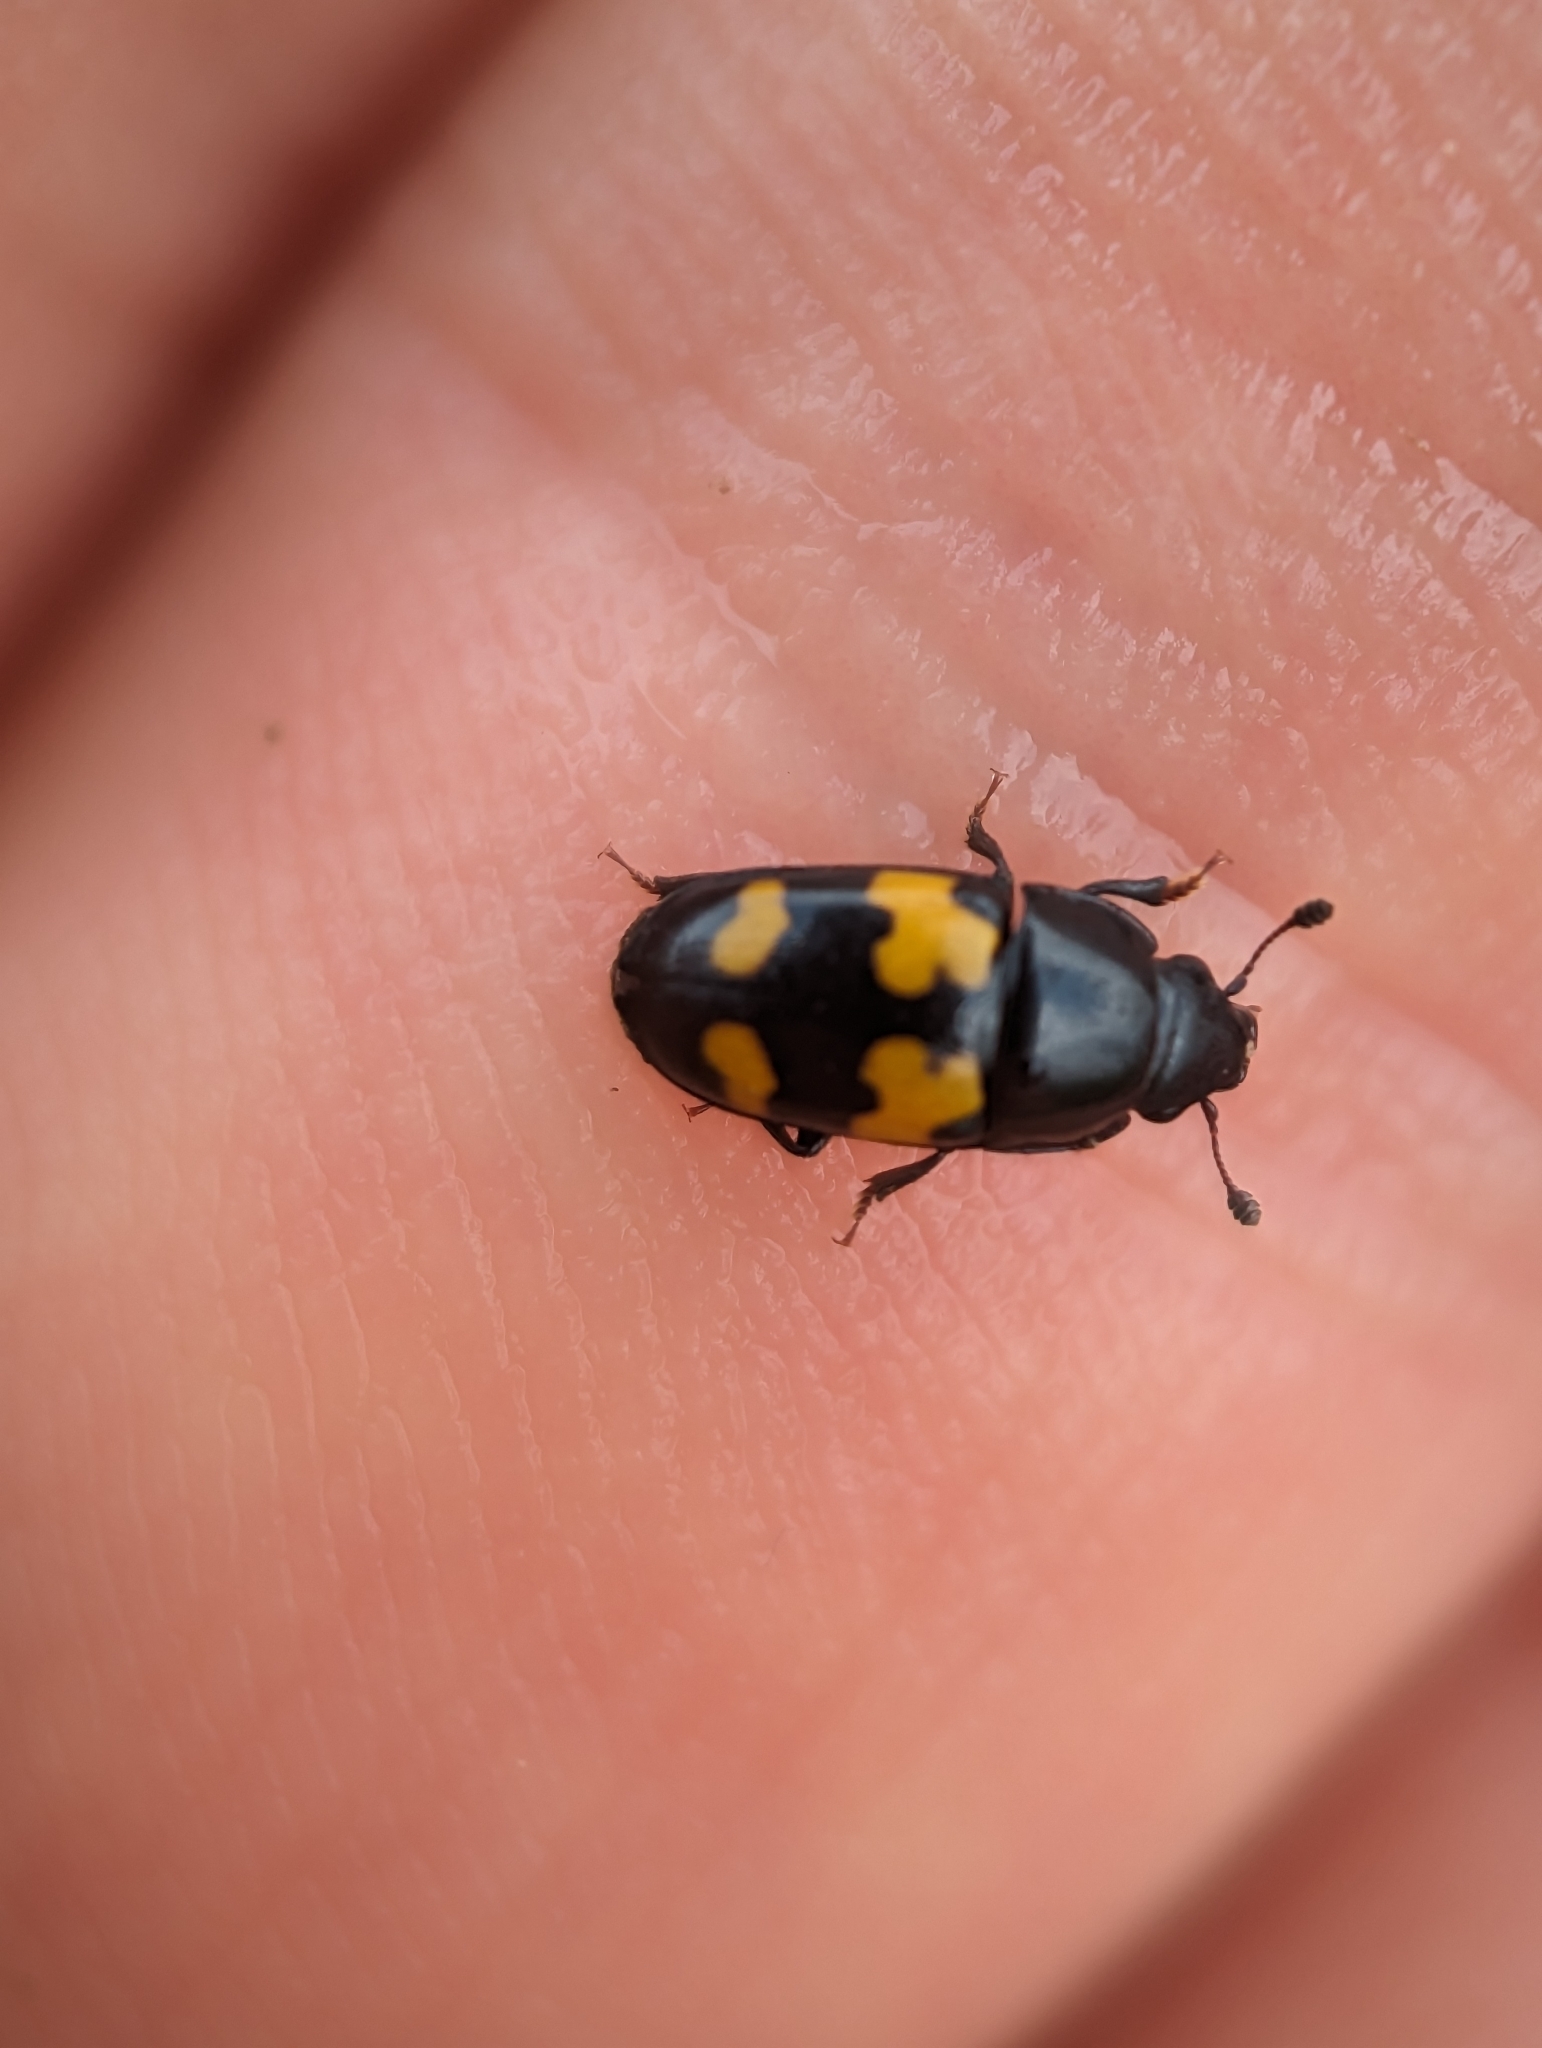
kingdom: Animalia
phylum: Arthropoda
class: Insecta
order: Coleoptera
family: Nitidulidae
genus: Glischrochilus
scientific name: Glischrochilus fasciatus
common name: Picnic beetle
